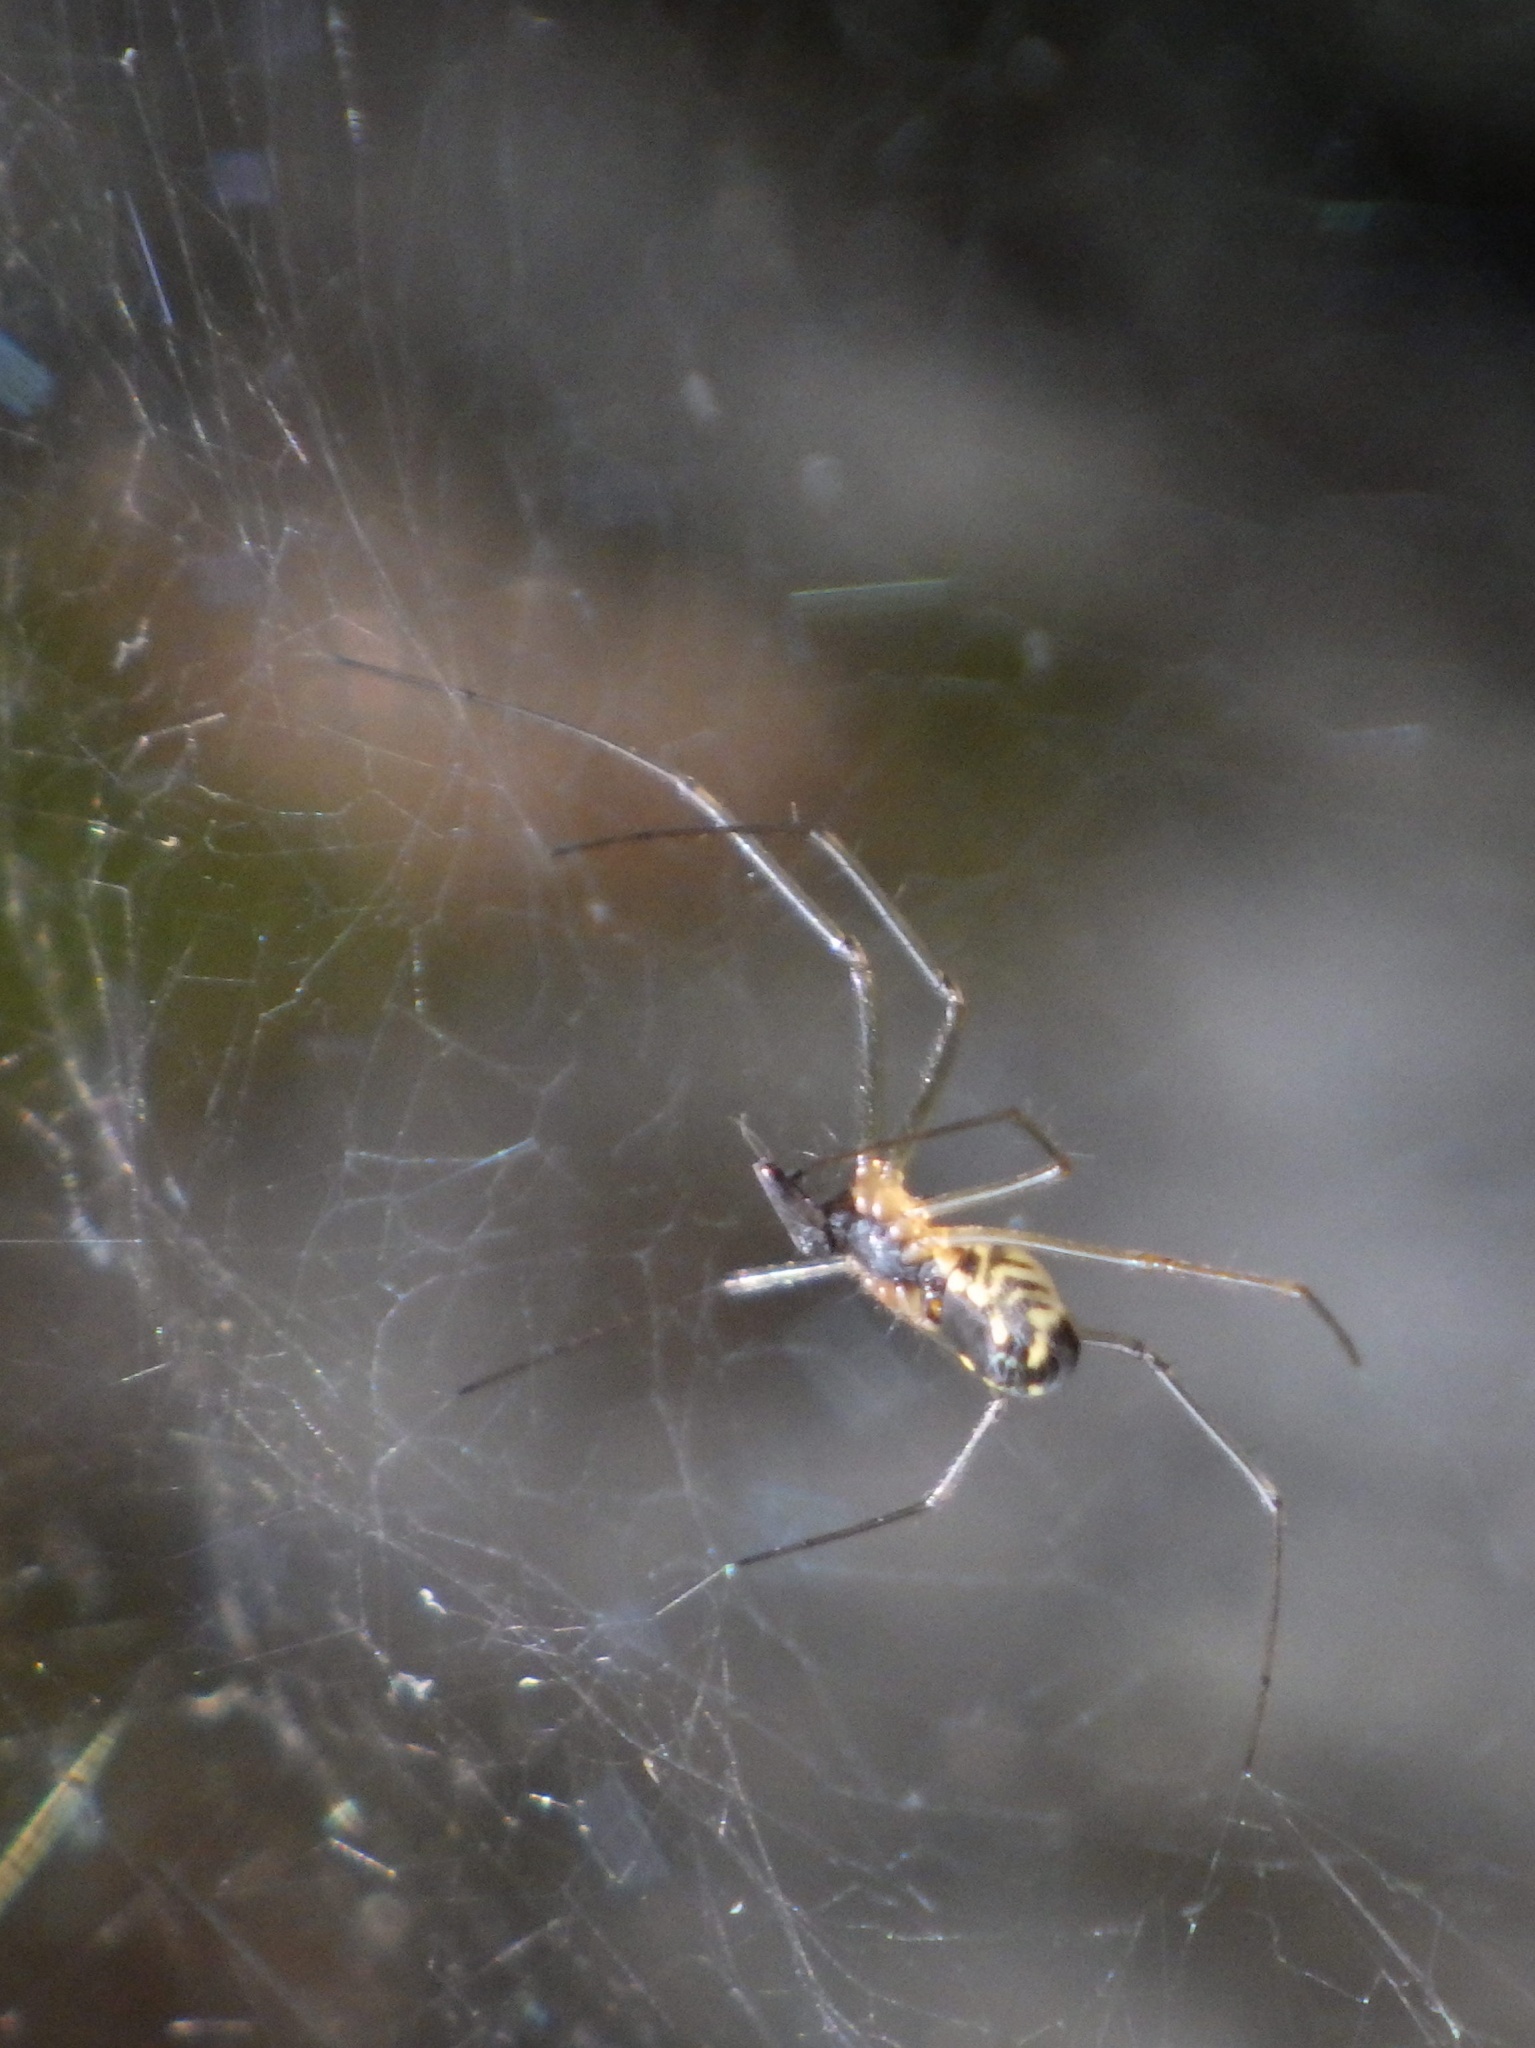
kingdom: Animalia
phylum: Arthropoda
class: Arachnida
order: Araneae
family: Linyphiidae
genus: Neriene
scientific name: Neriene radiata
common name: Filmy dome spider
